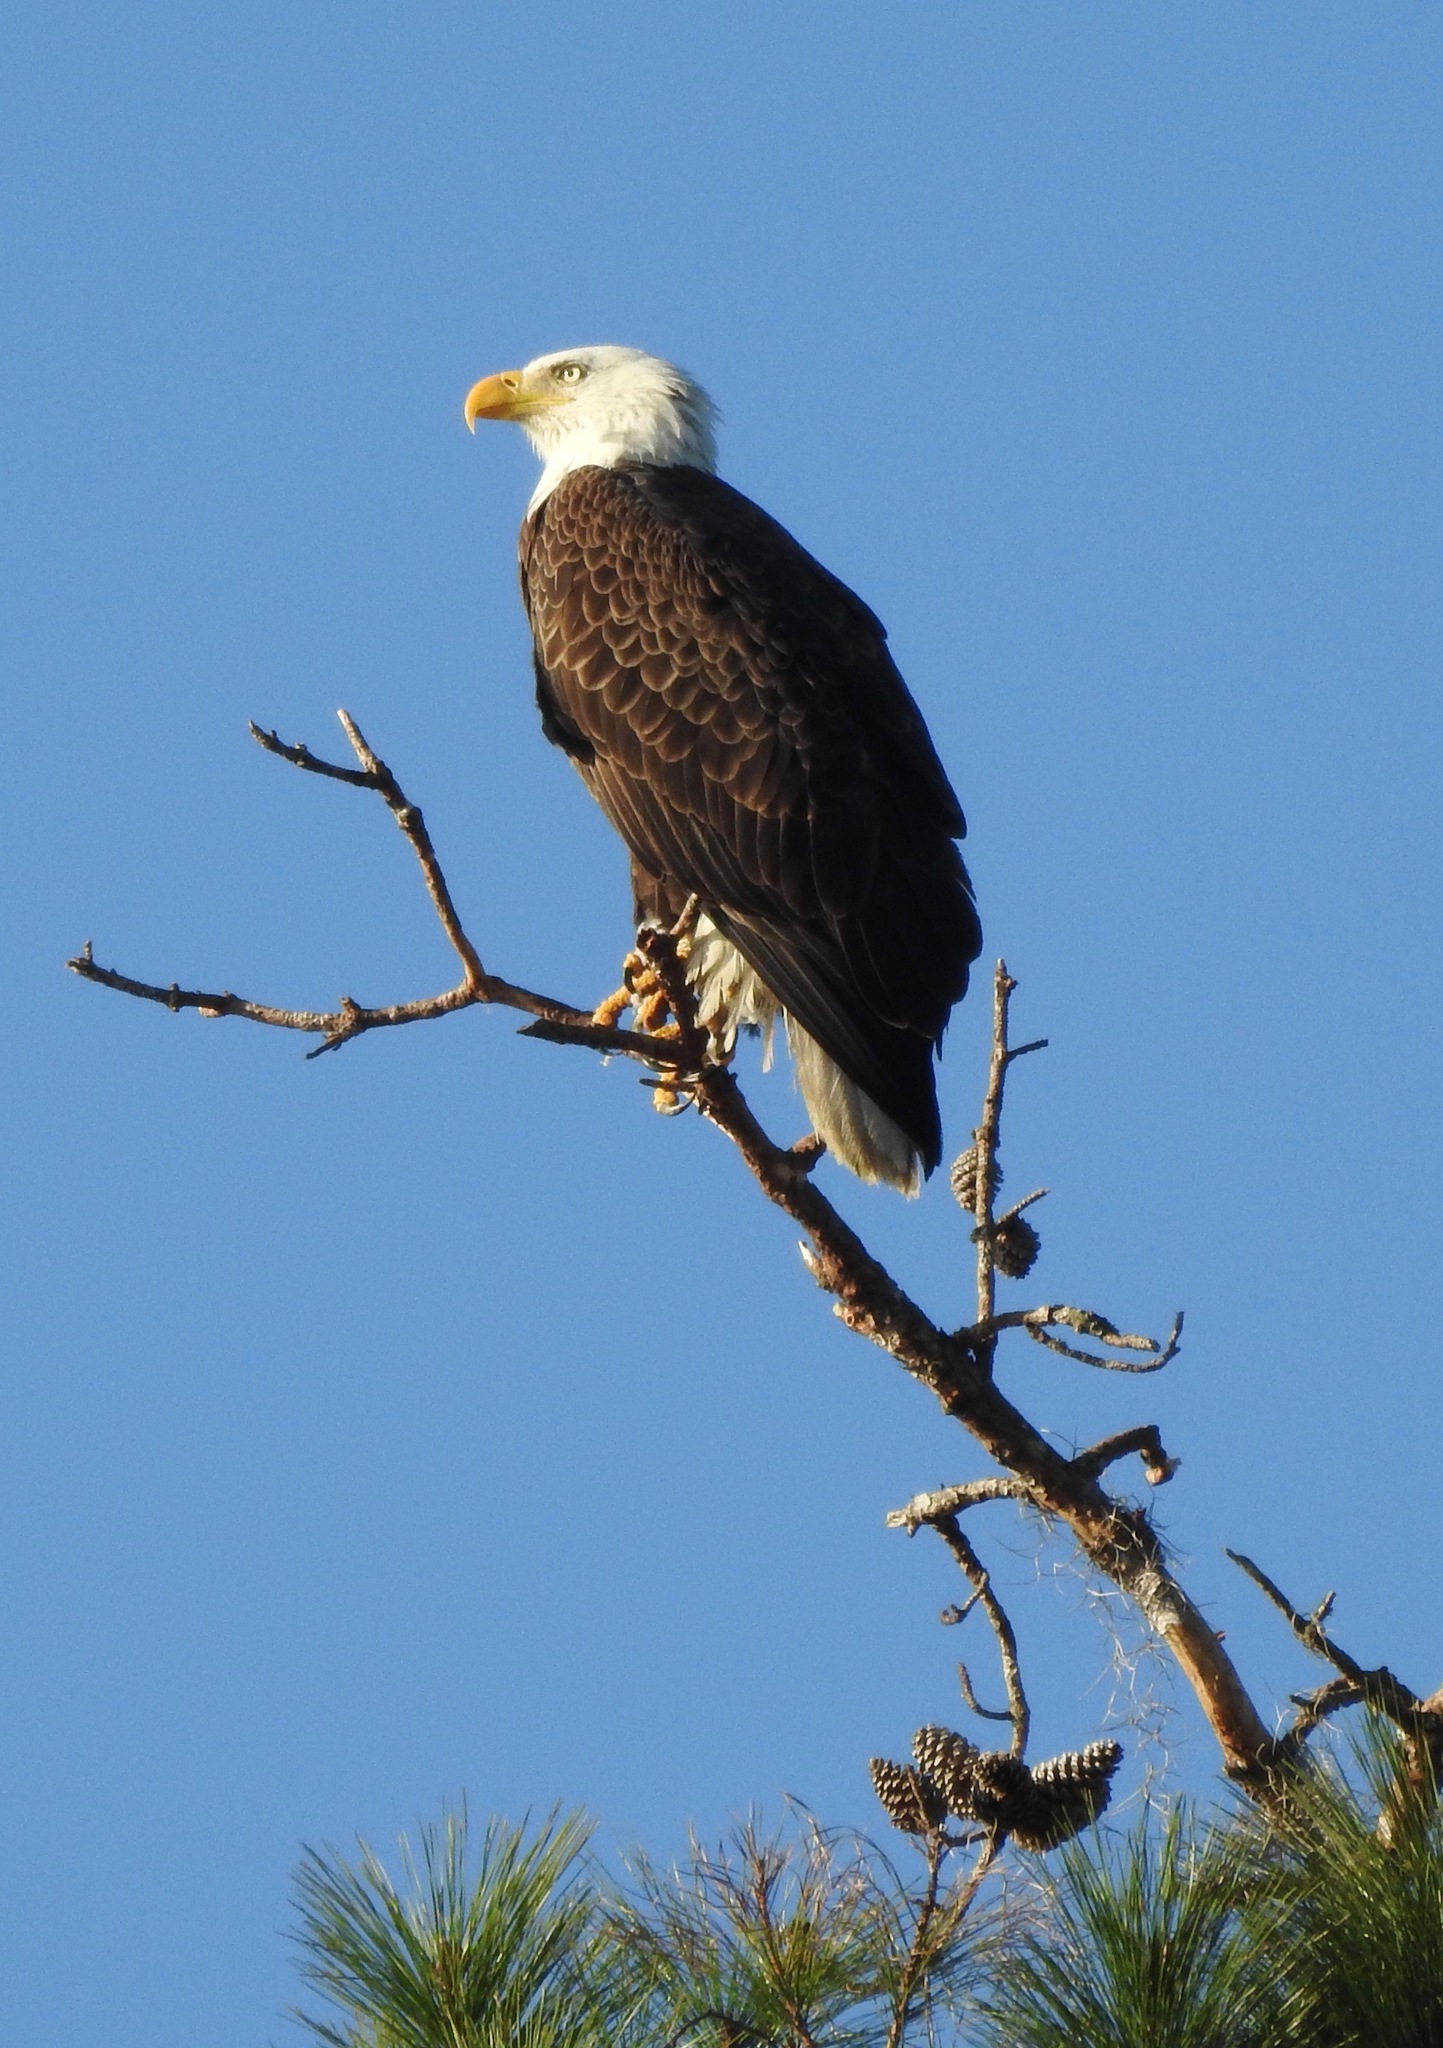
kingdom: Animalia
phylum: Chordata
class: Aves
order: Accipitriformes
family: Accipitridae
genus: Haliaeetus
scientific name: Haliaeetus leucocephalus
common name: Bald eagle
